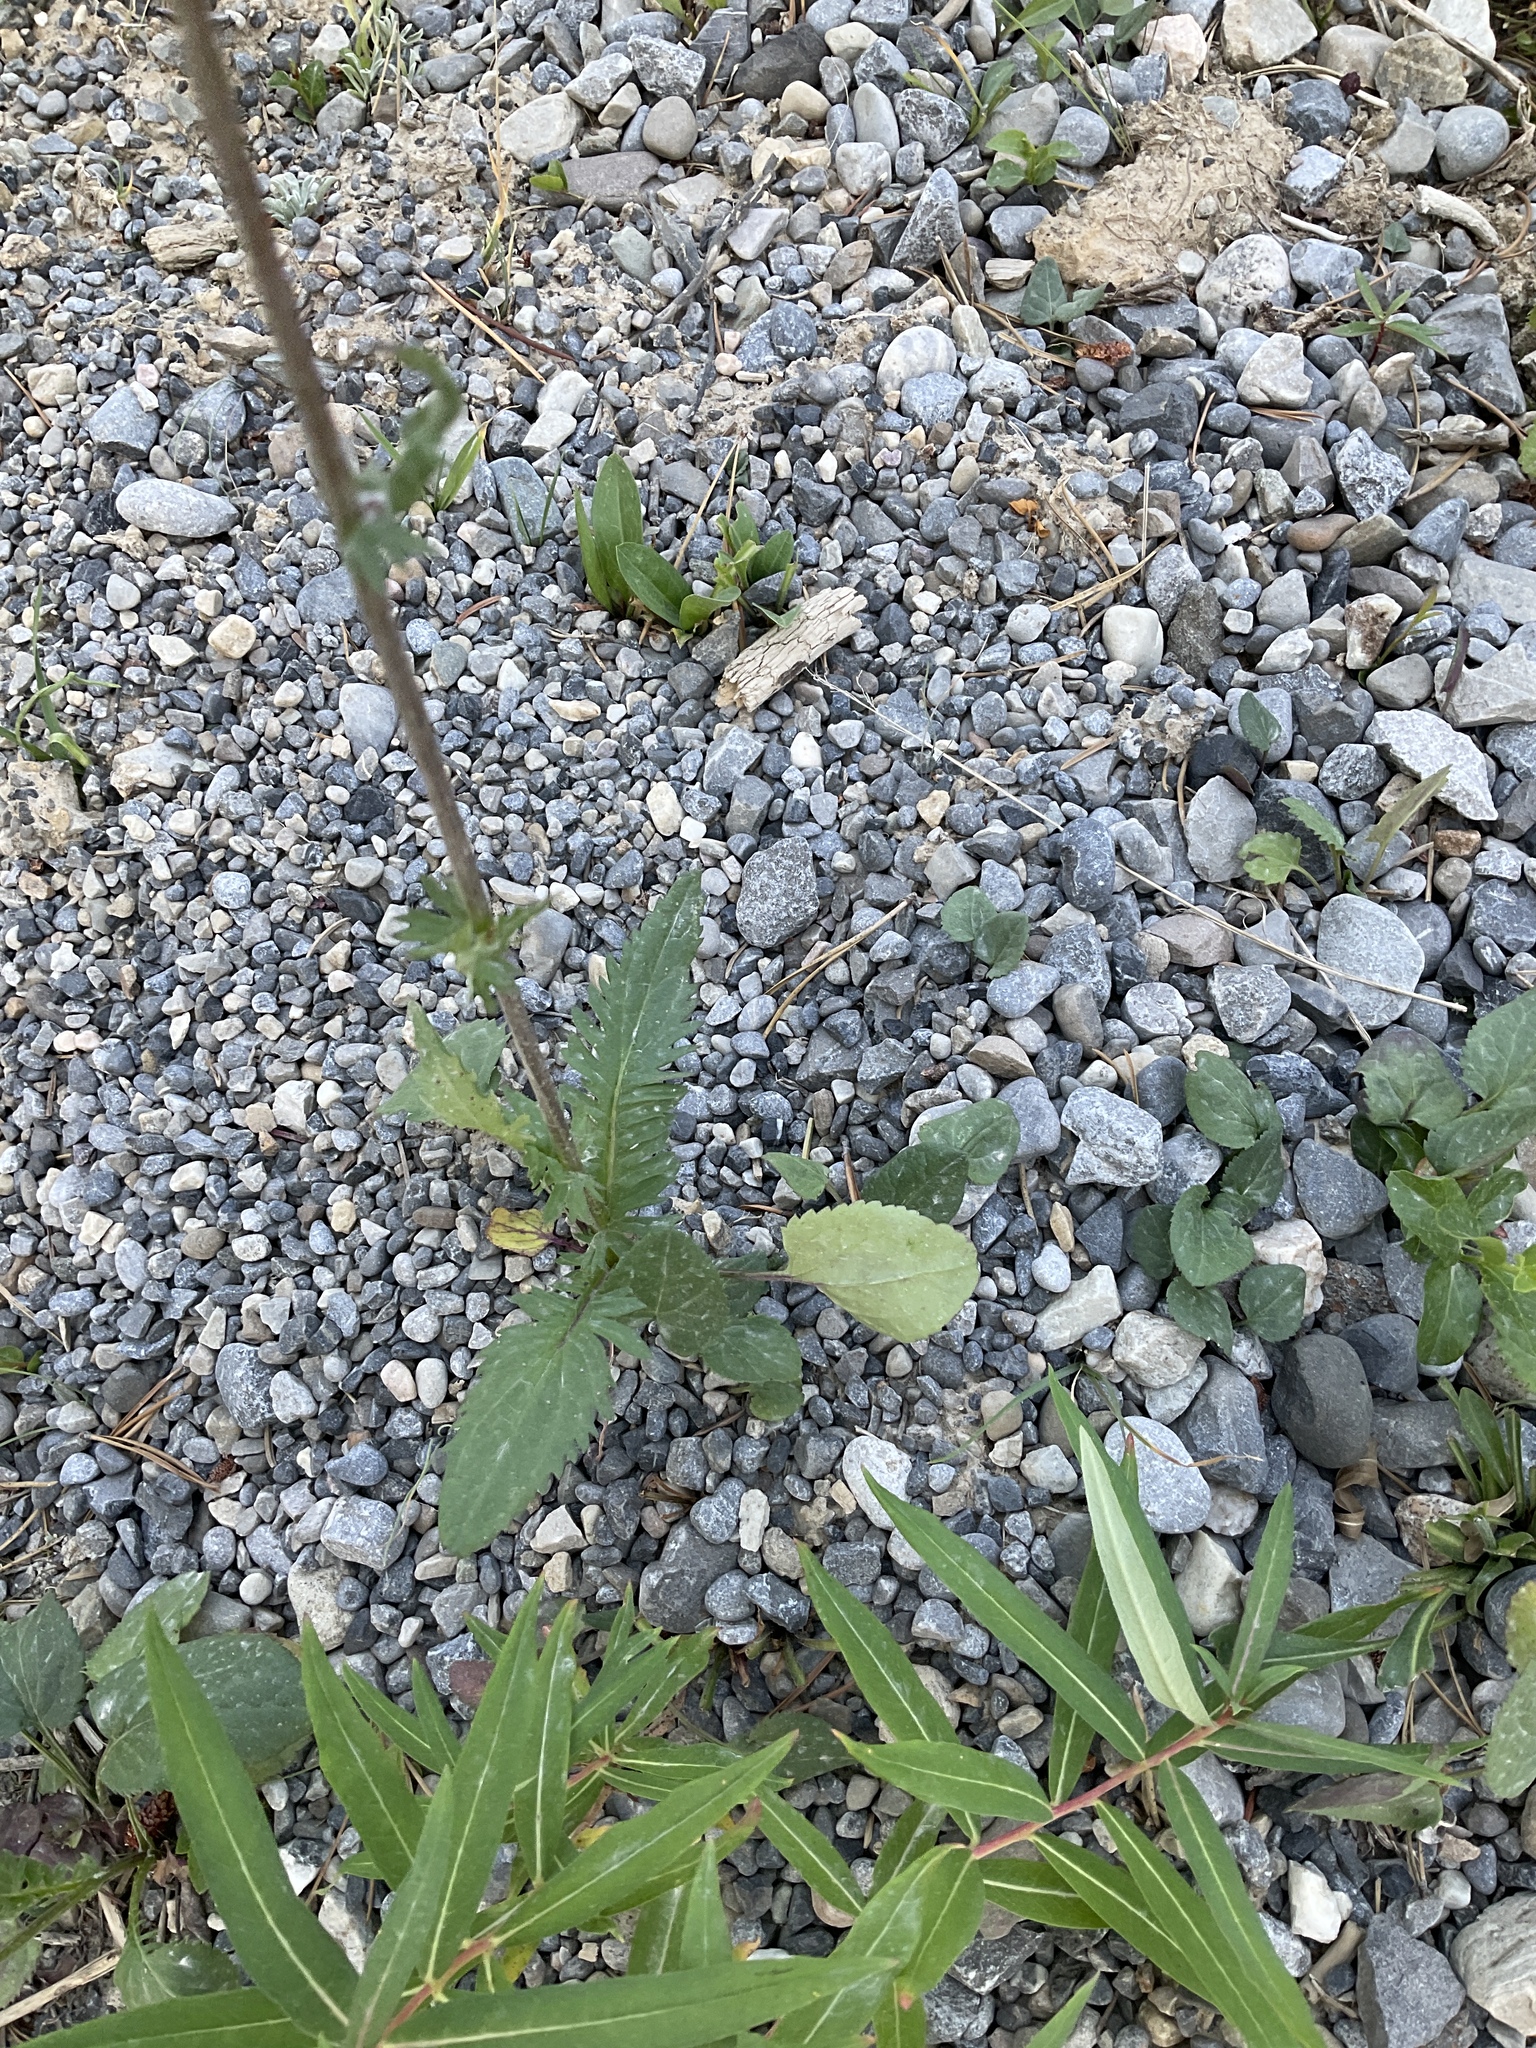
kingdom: Plantae
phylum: Tracheophyta
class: Magnoliopsida
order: Asterales
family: Asteraceae
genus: Packera
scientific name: Packera paupercula
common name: Balsam groundsel
